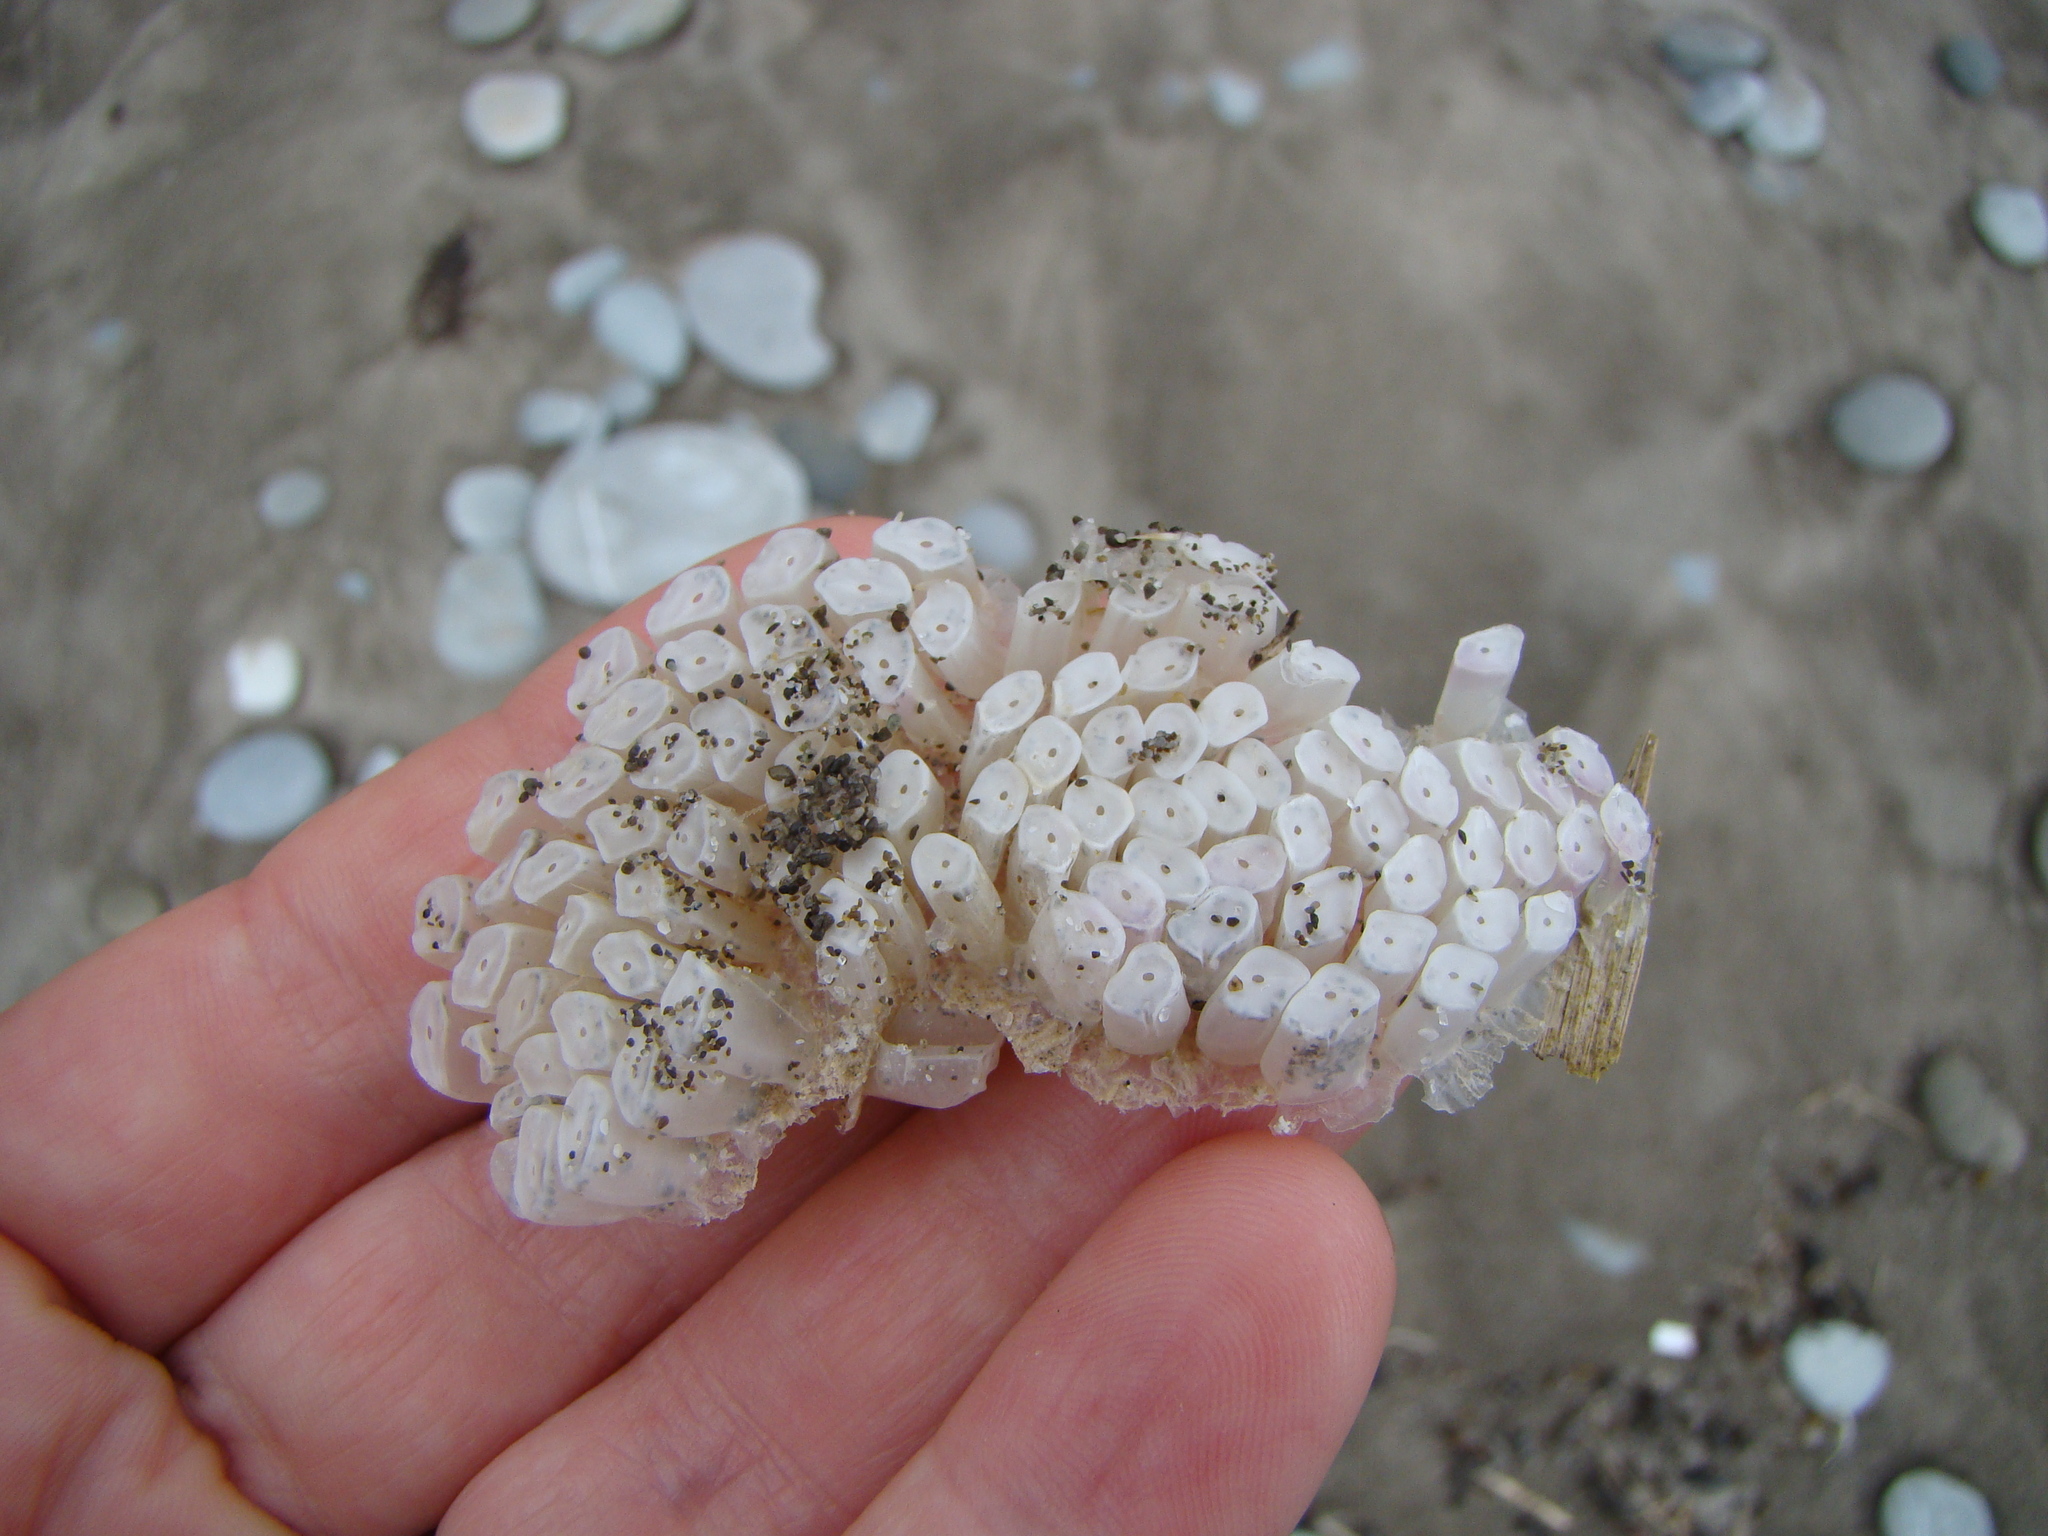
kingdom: Animalia
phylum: Mollusca
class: Gastropoda
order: Neogastropoda
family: Muricidae
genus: Dicathais
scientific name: Dicathais orbita
